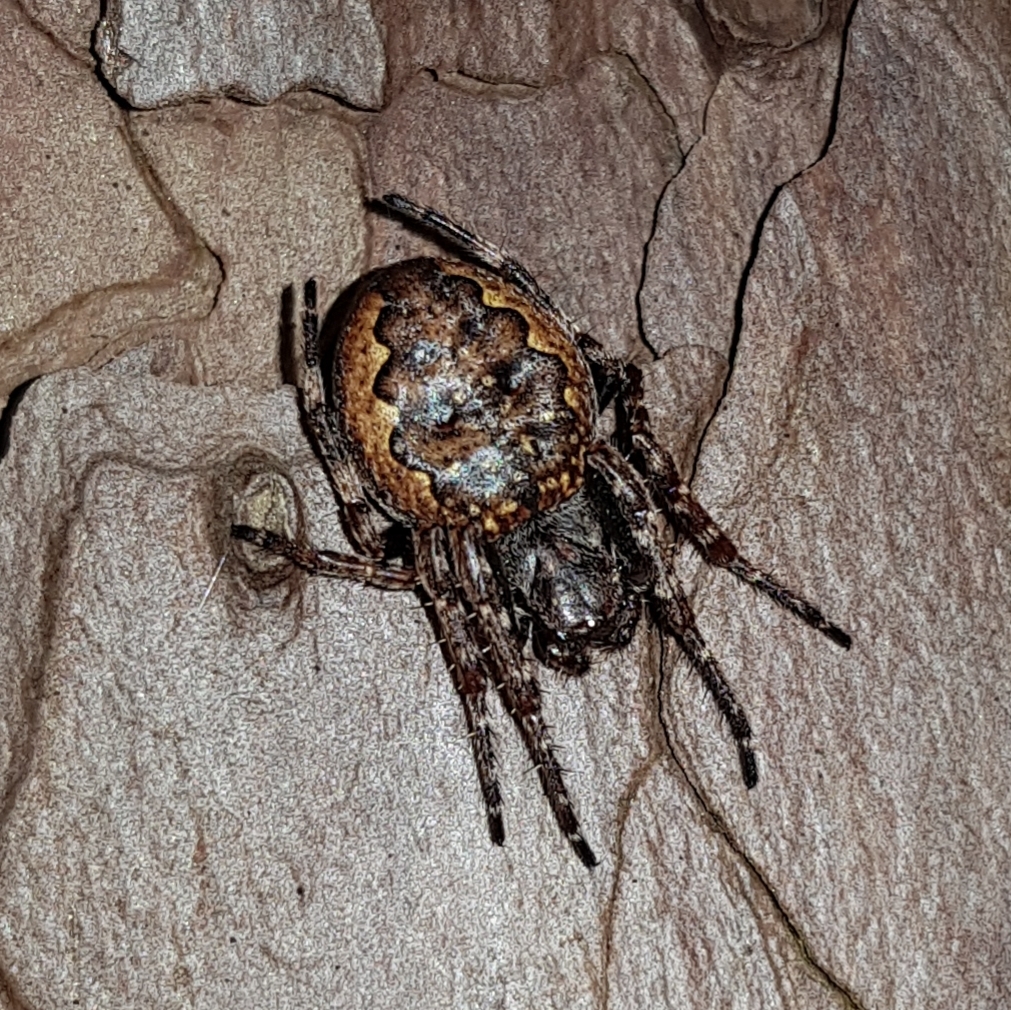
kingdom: Animalia
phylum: Arthropoda
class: Arachnida
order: Araneae
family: Araneidae
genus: Nuctenea
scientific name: Nuctenea umbratica
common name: Toad spider
